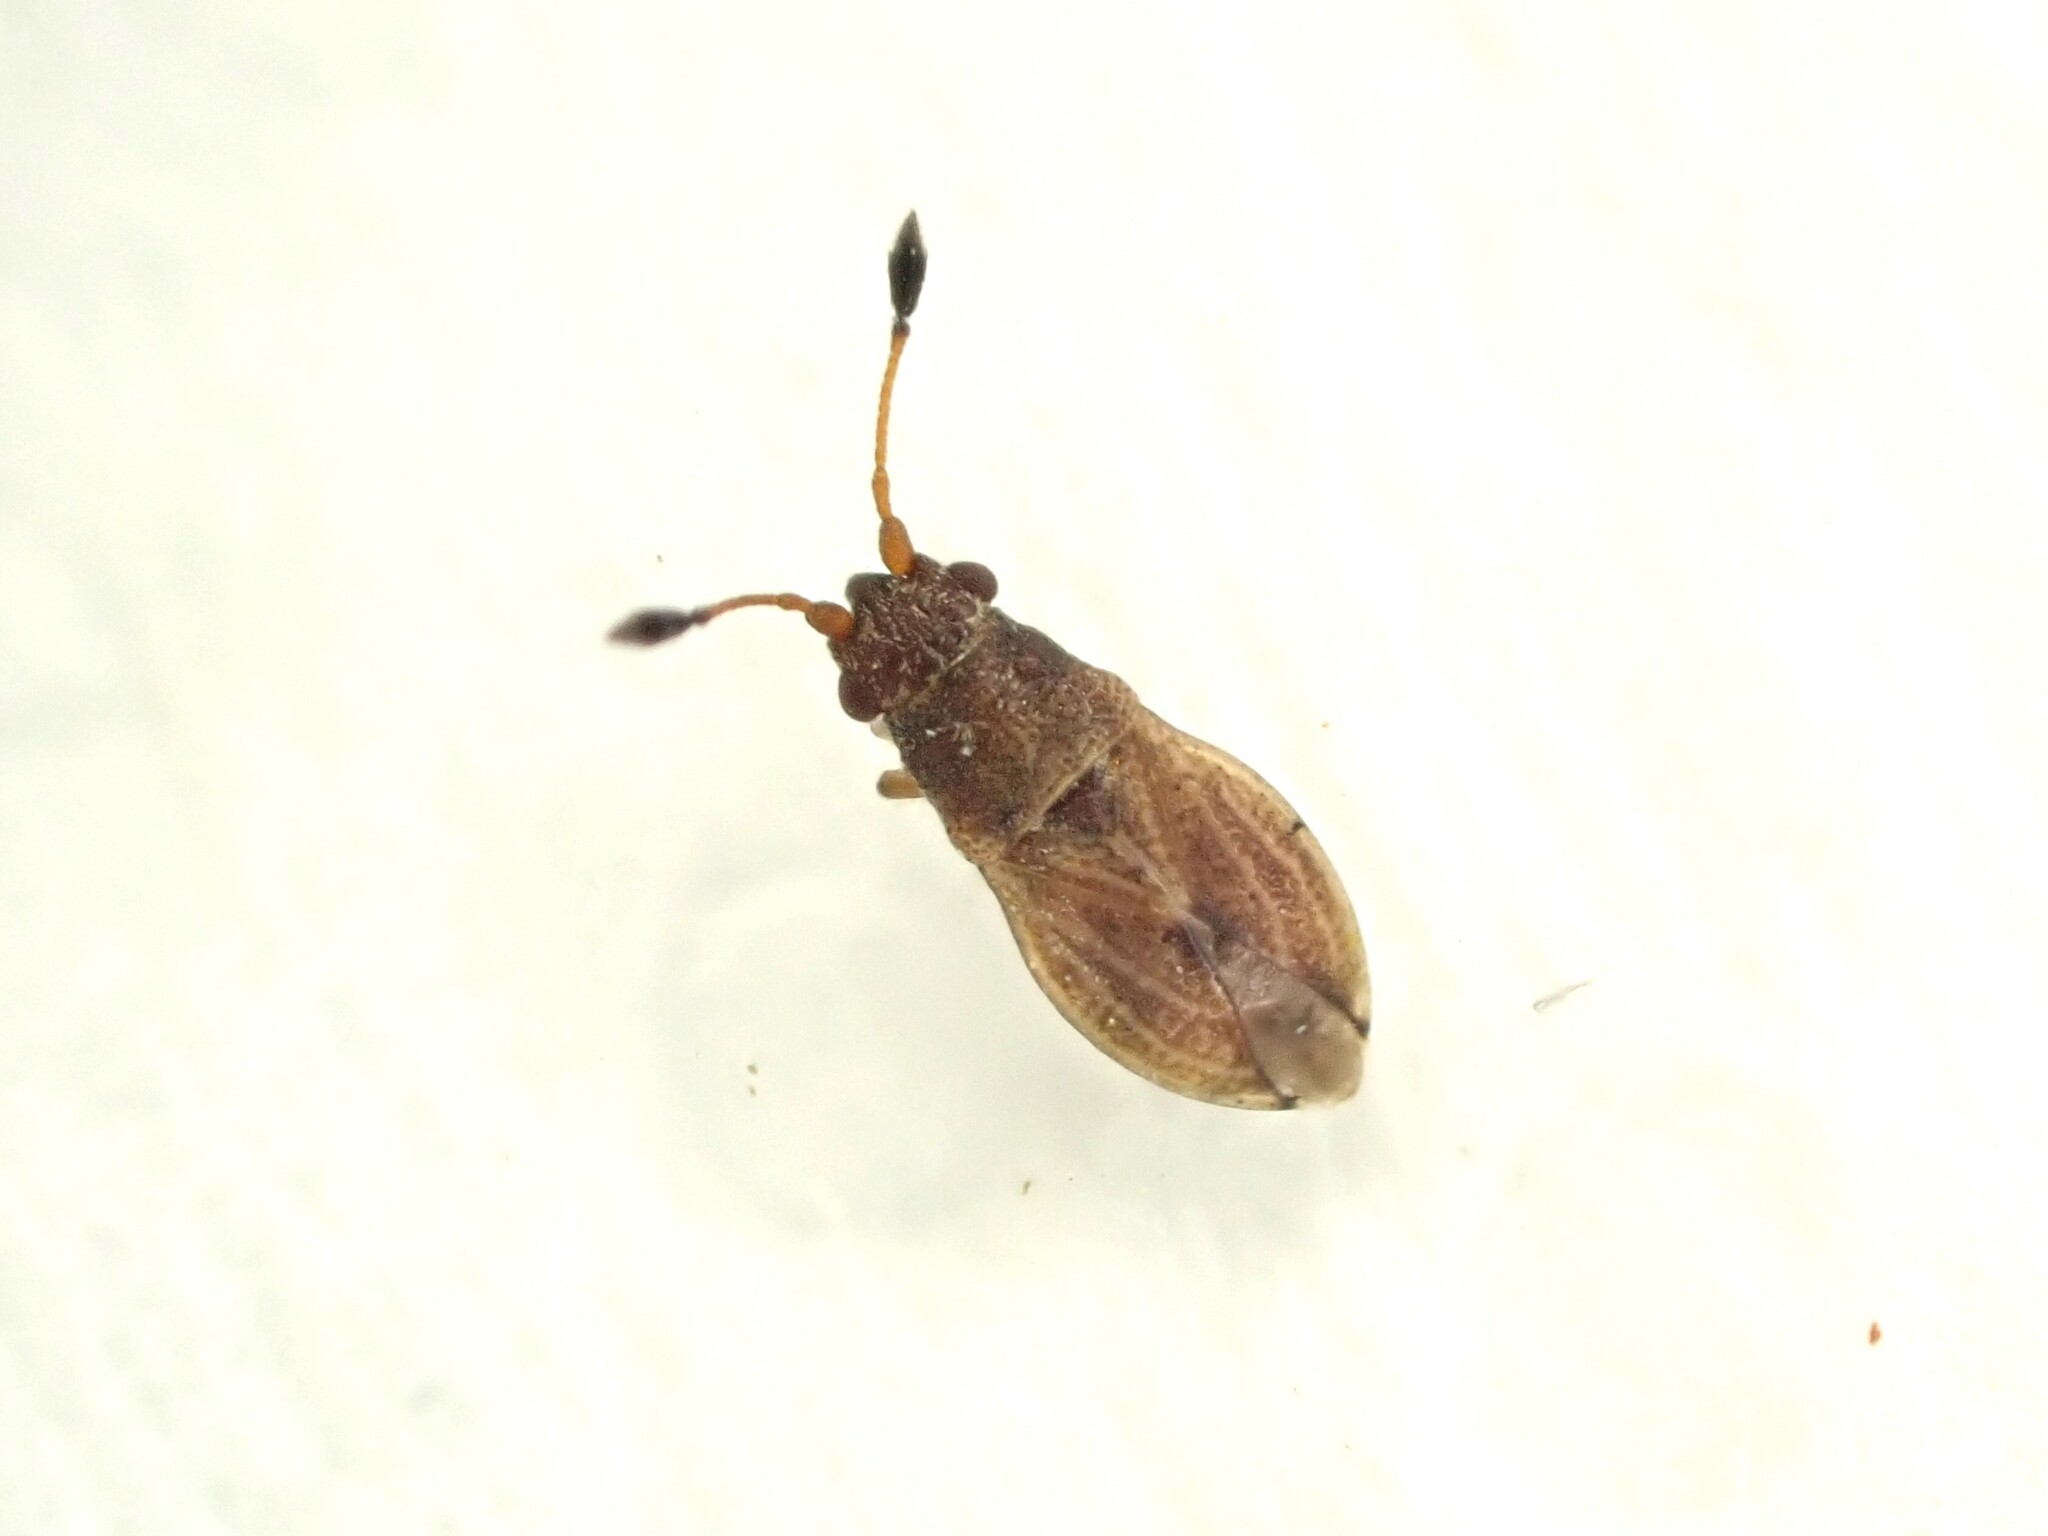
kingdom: Animalia
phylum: Arthropoda
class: Insecta
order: Hemiptera
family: Cymidae
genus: Cymus
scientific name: Cymus novaezelandiae
